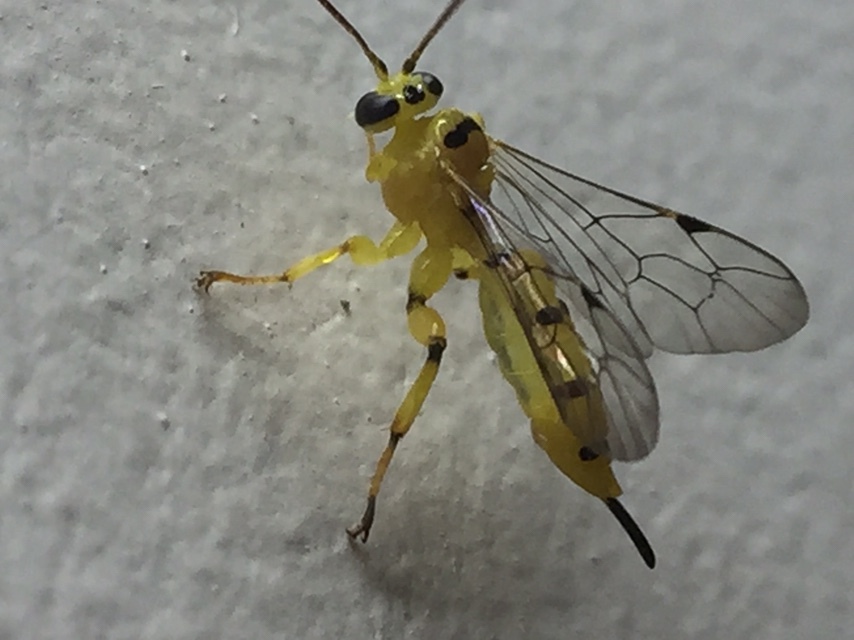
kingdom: Animalia
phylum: Arthropoda
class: Insecta
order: Hymenoptera
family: Ichneumonidae
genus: Xanthopimpla
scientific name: Xanthopimpla punctata
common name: Parasitoid wasp
